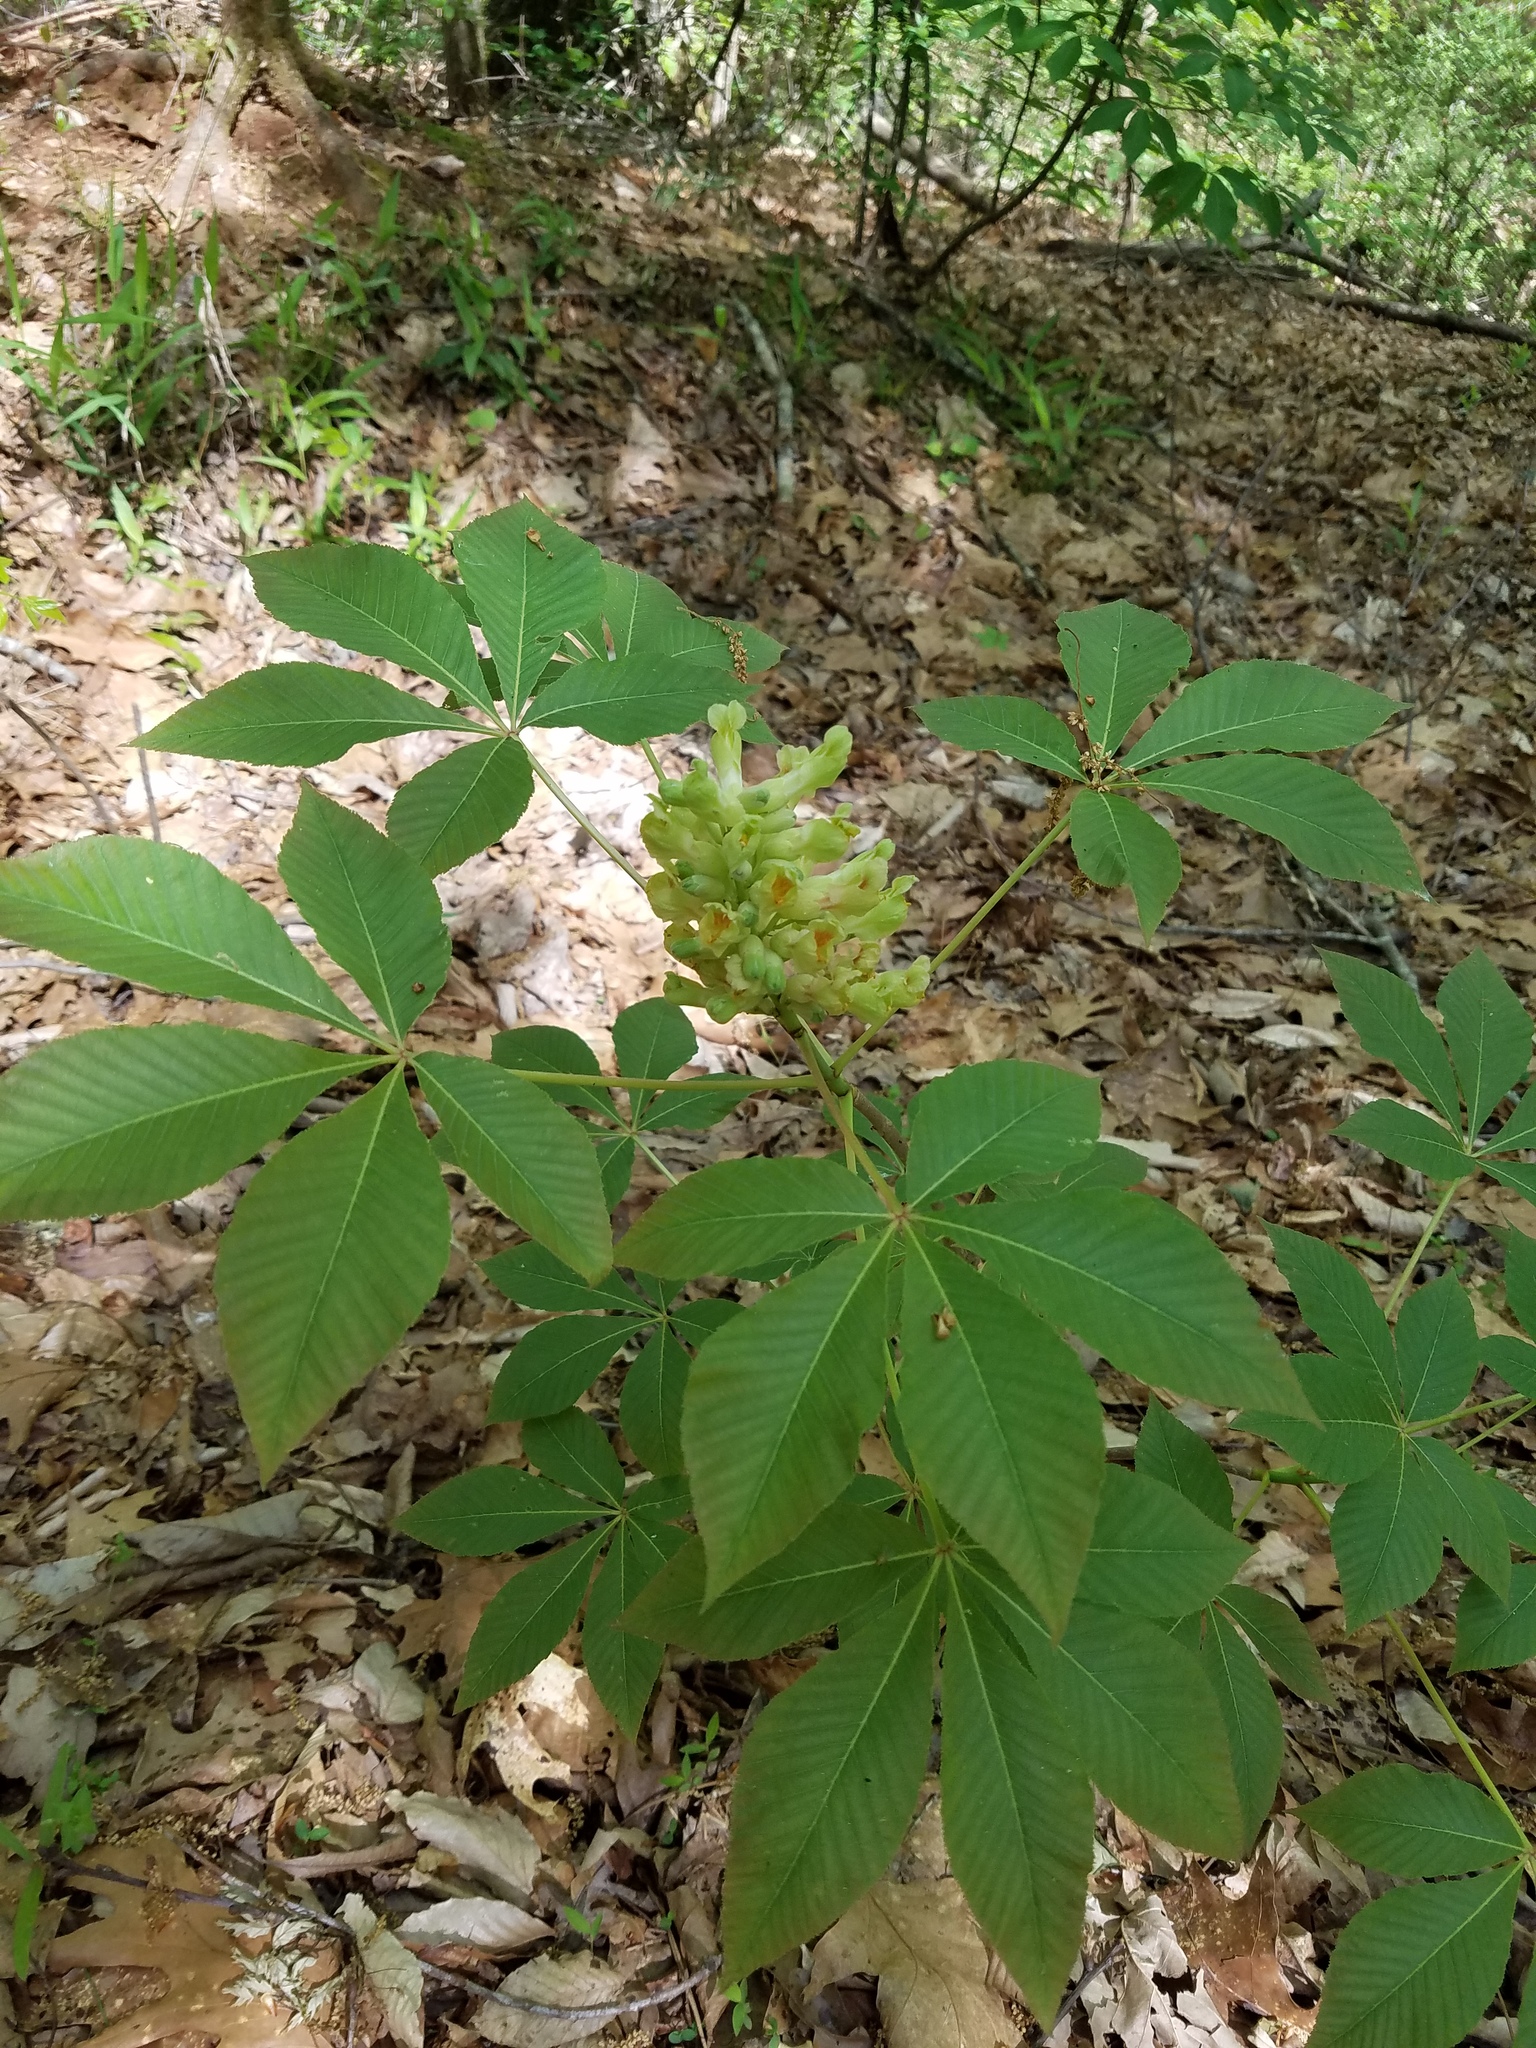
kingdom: Plantae
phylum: Tracheophyta
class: Magnoliopsida
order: Sapindales
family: Sapindaceae
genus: Aesculus
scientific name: Aesculus sylvatica
